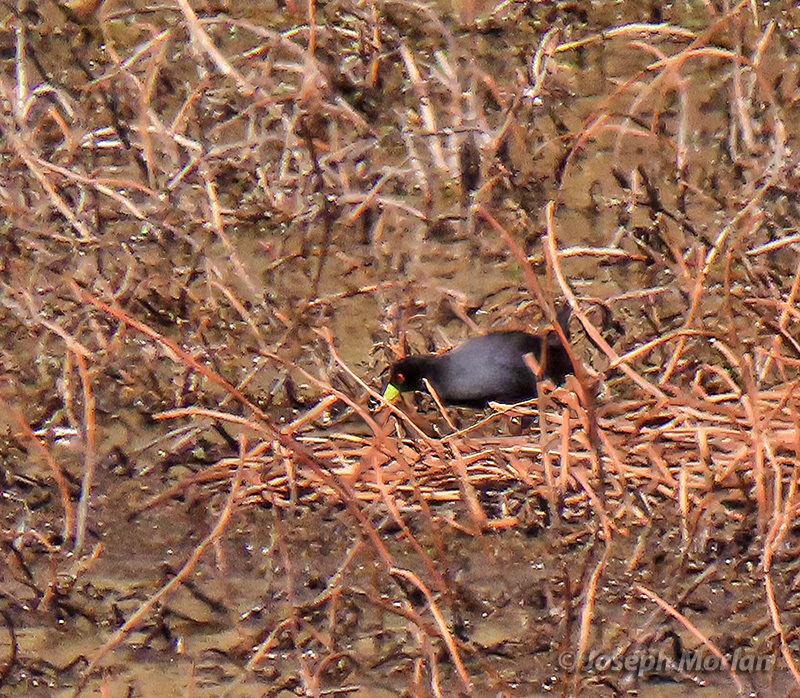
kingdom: Animalia
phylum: Chordata
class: Aves
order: Gruiformes
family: Rallidae
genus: Amaurornis
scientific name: Amaurornis flavirostra
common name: Black crake
